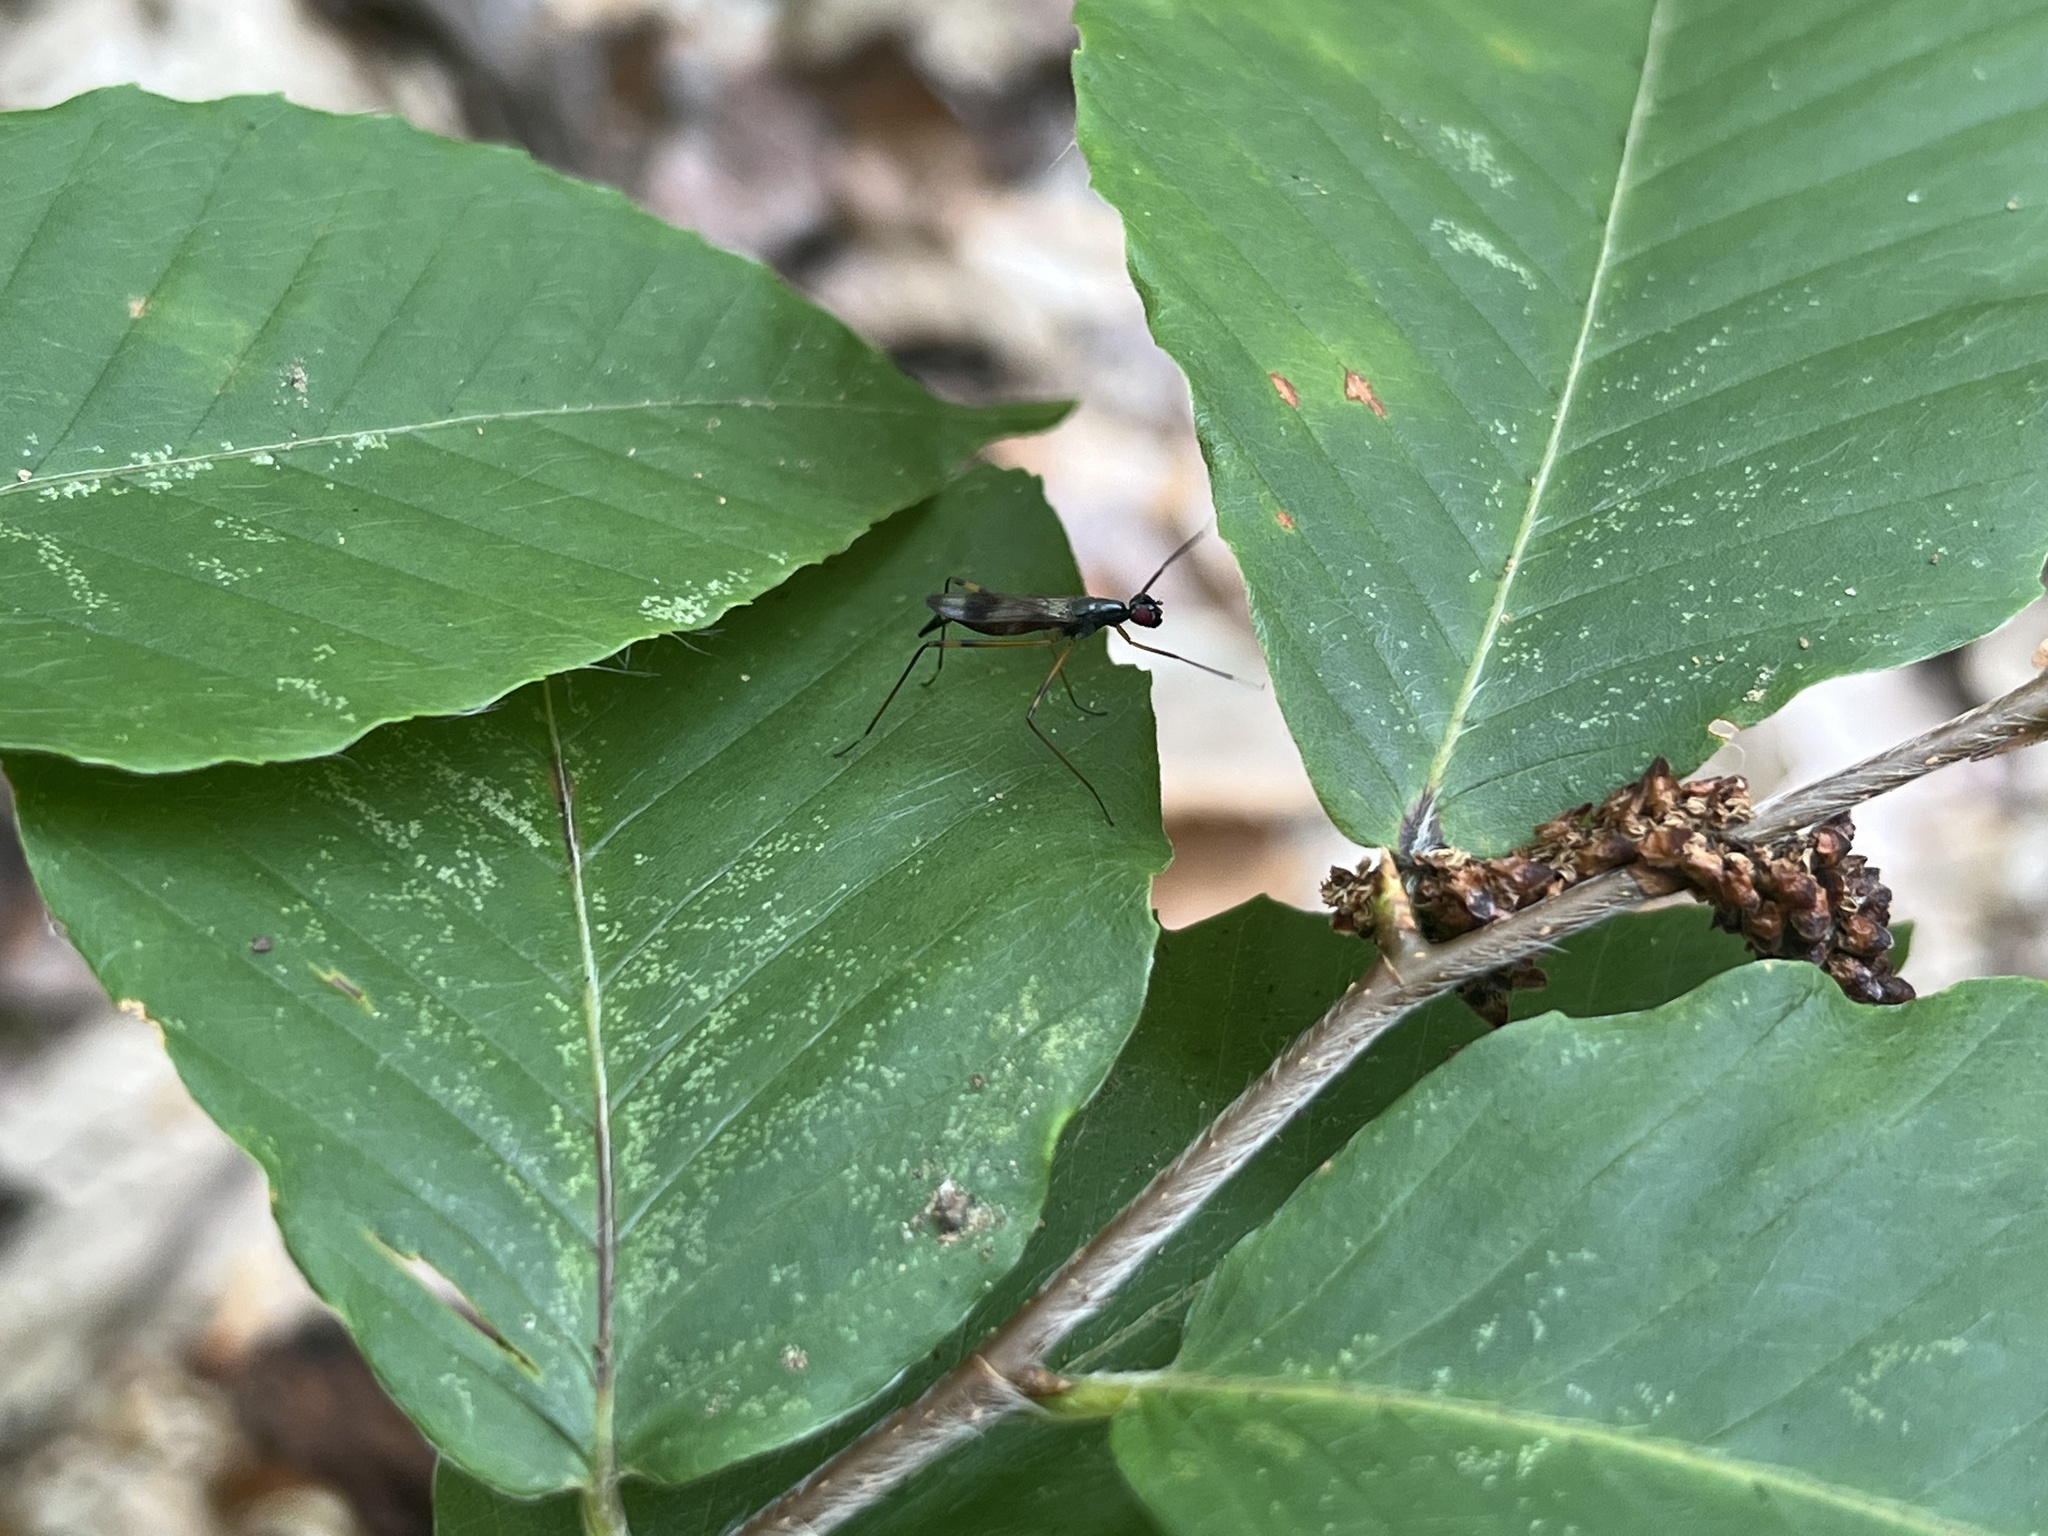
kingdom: Animalia
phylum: Arthropoda
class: Insecta
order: Diptera
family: Micropezidae
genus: Rainieria
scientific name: Rainieria antennaepes
